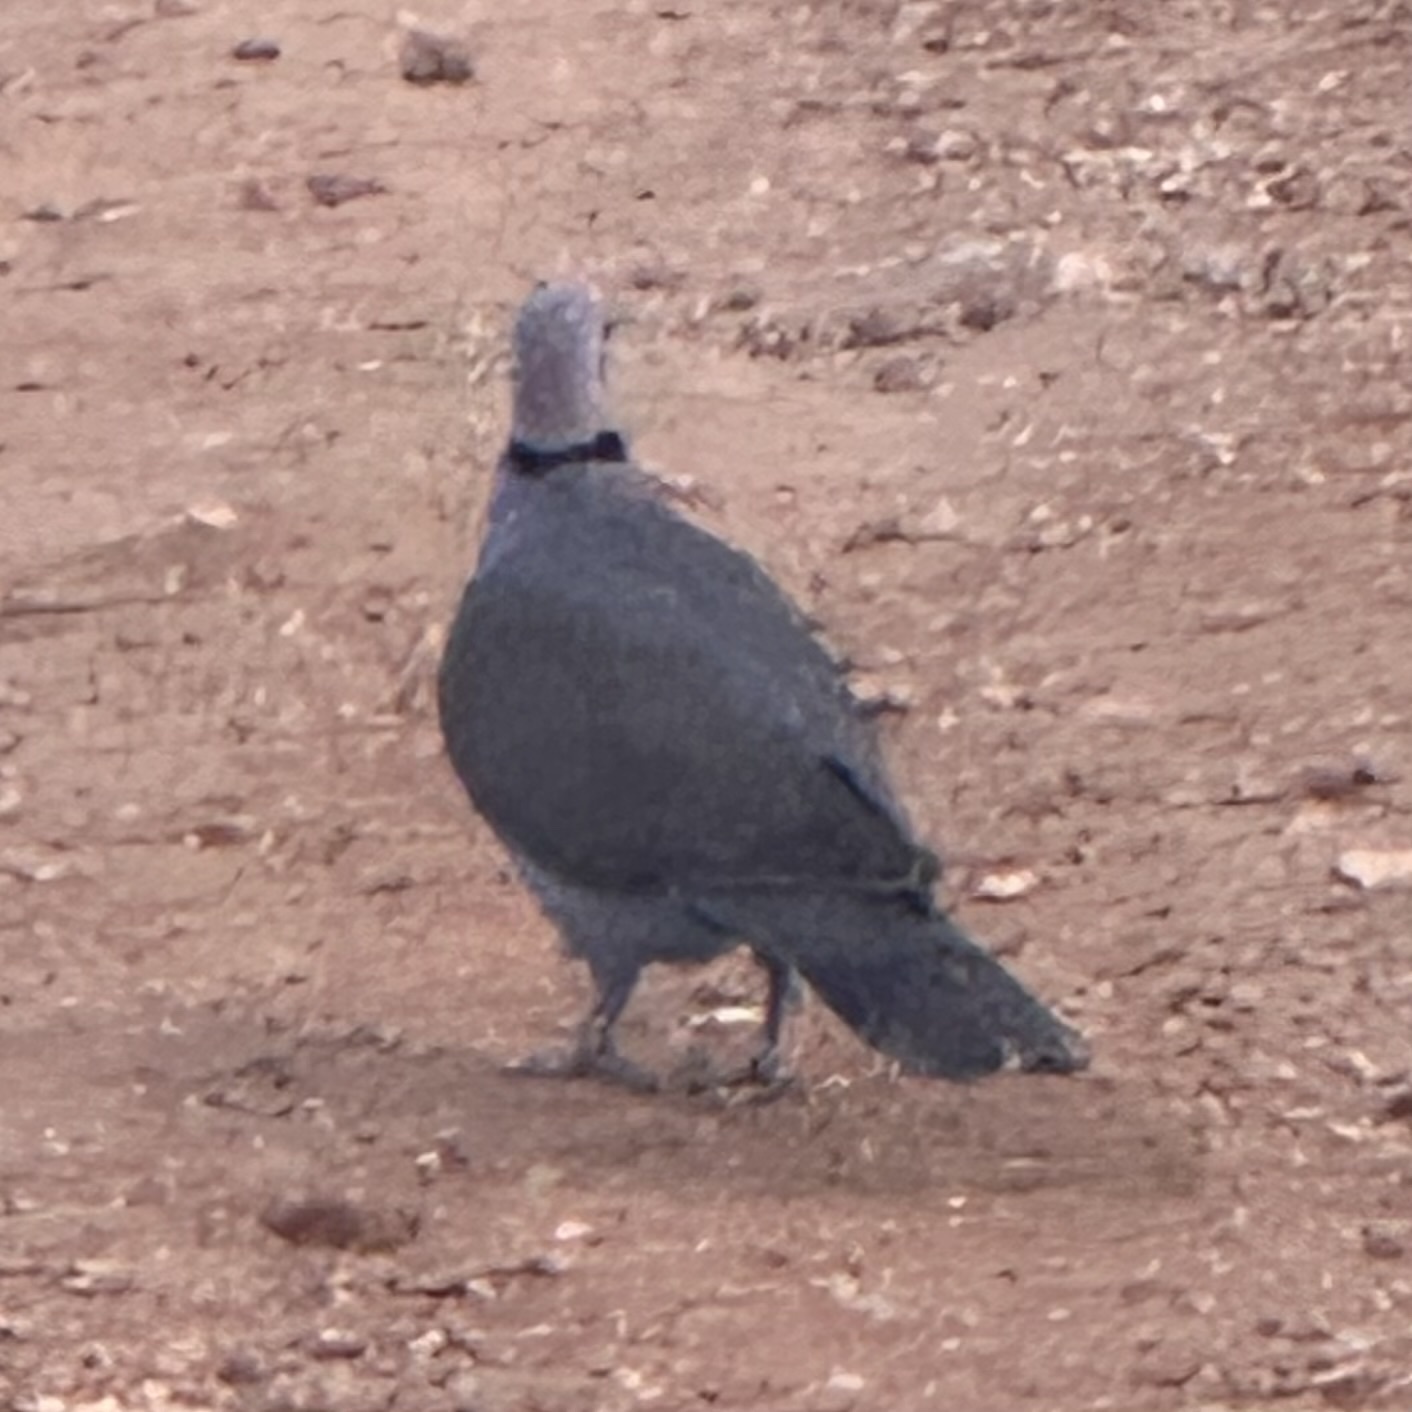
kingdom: Animalia
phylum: Chordata
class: Aves
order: Columbiformes
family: Columbidae
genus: Streptopelia
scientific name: Streptopelia capicola
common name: Ring-necked dove
